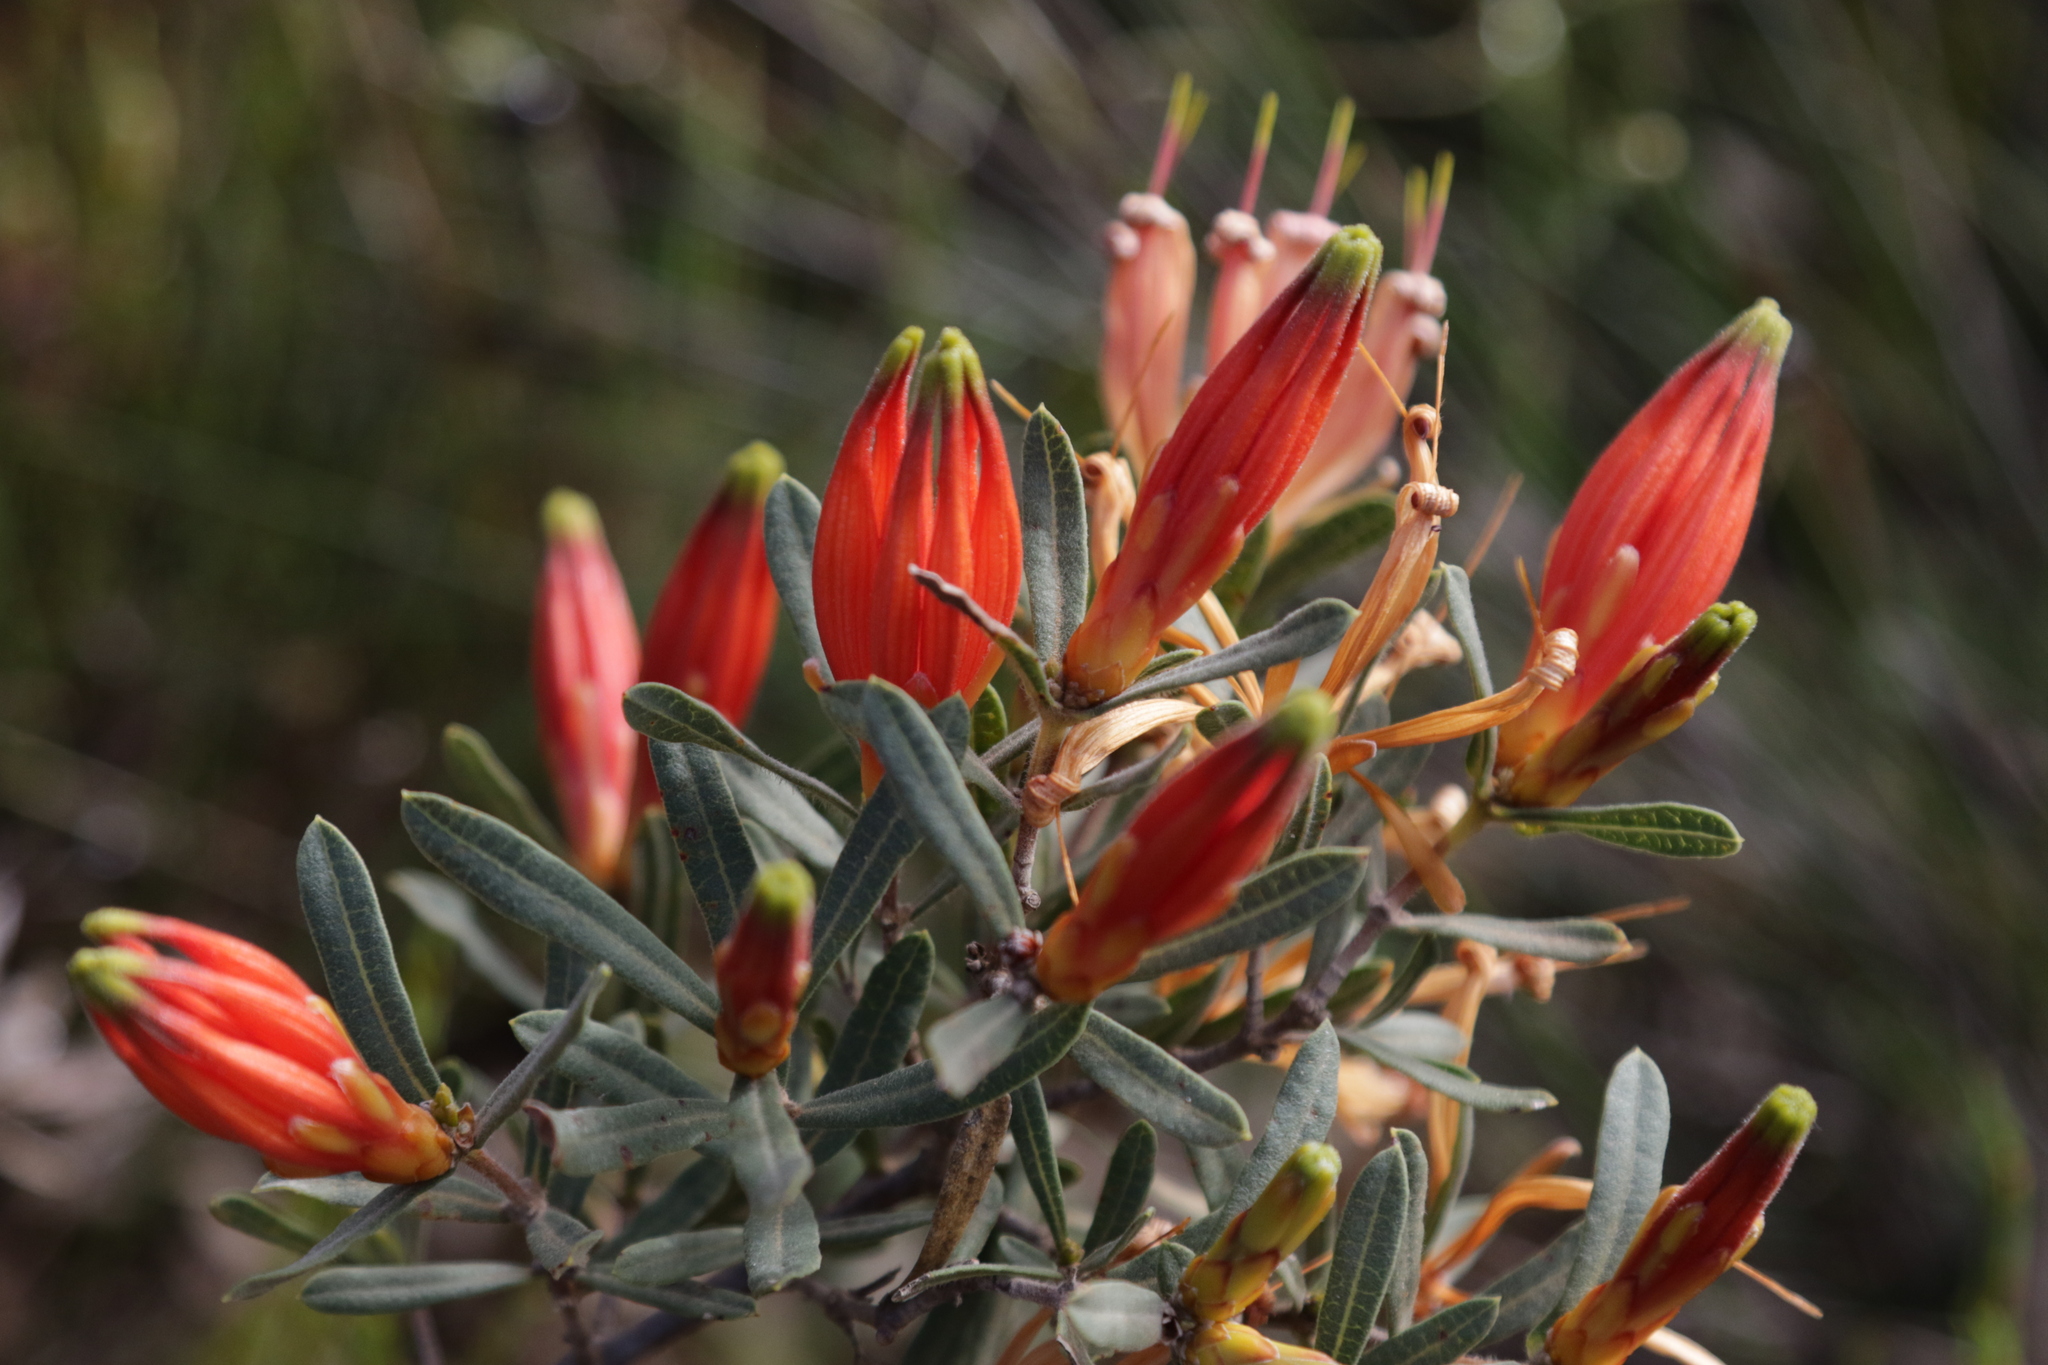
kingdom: Plantae
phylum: Tracheophyta
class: Magnoliopsida
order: Proteales
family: Proteaceae
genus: Lambertia
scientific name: Lambertia multiflora
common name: Many-flowered honeysuckle
